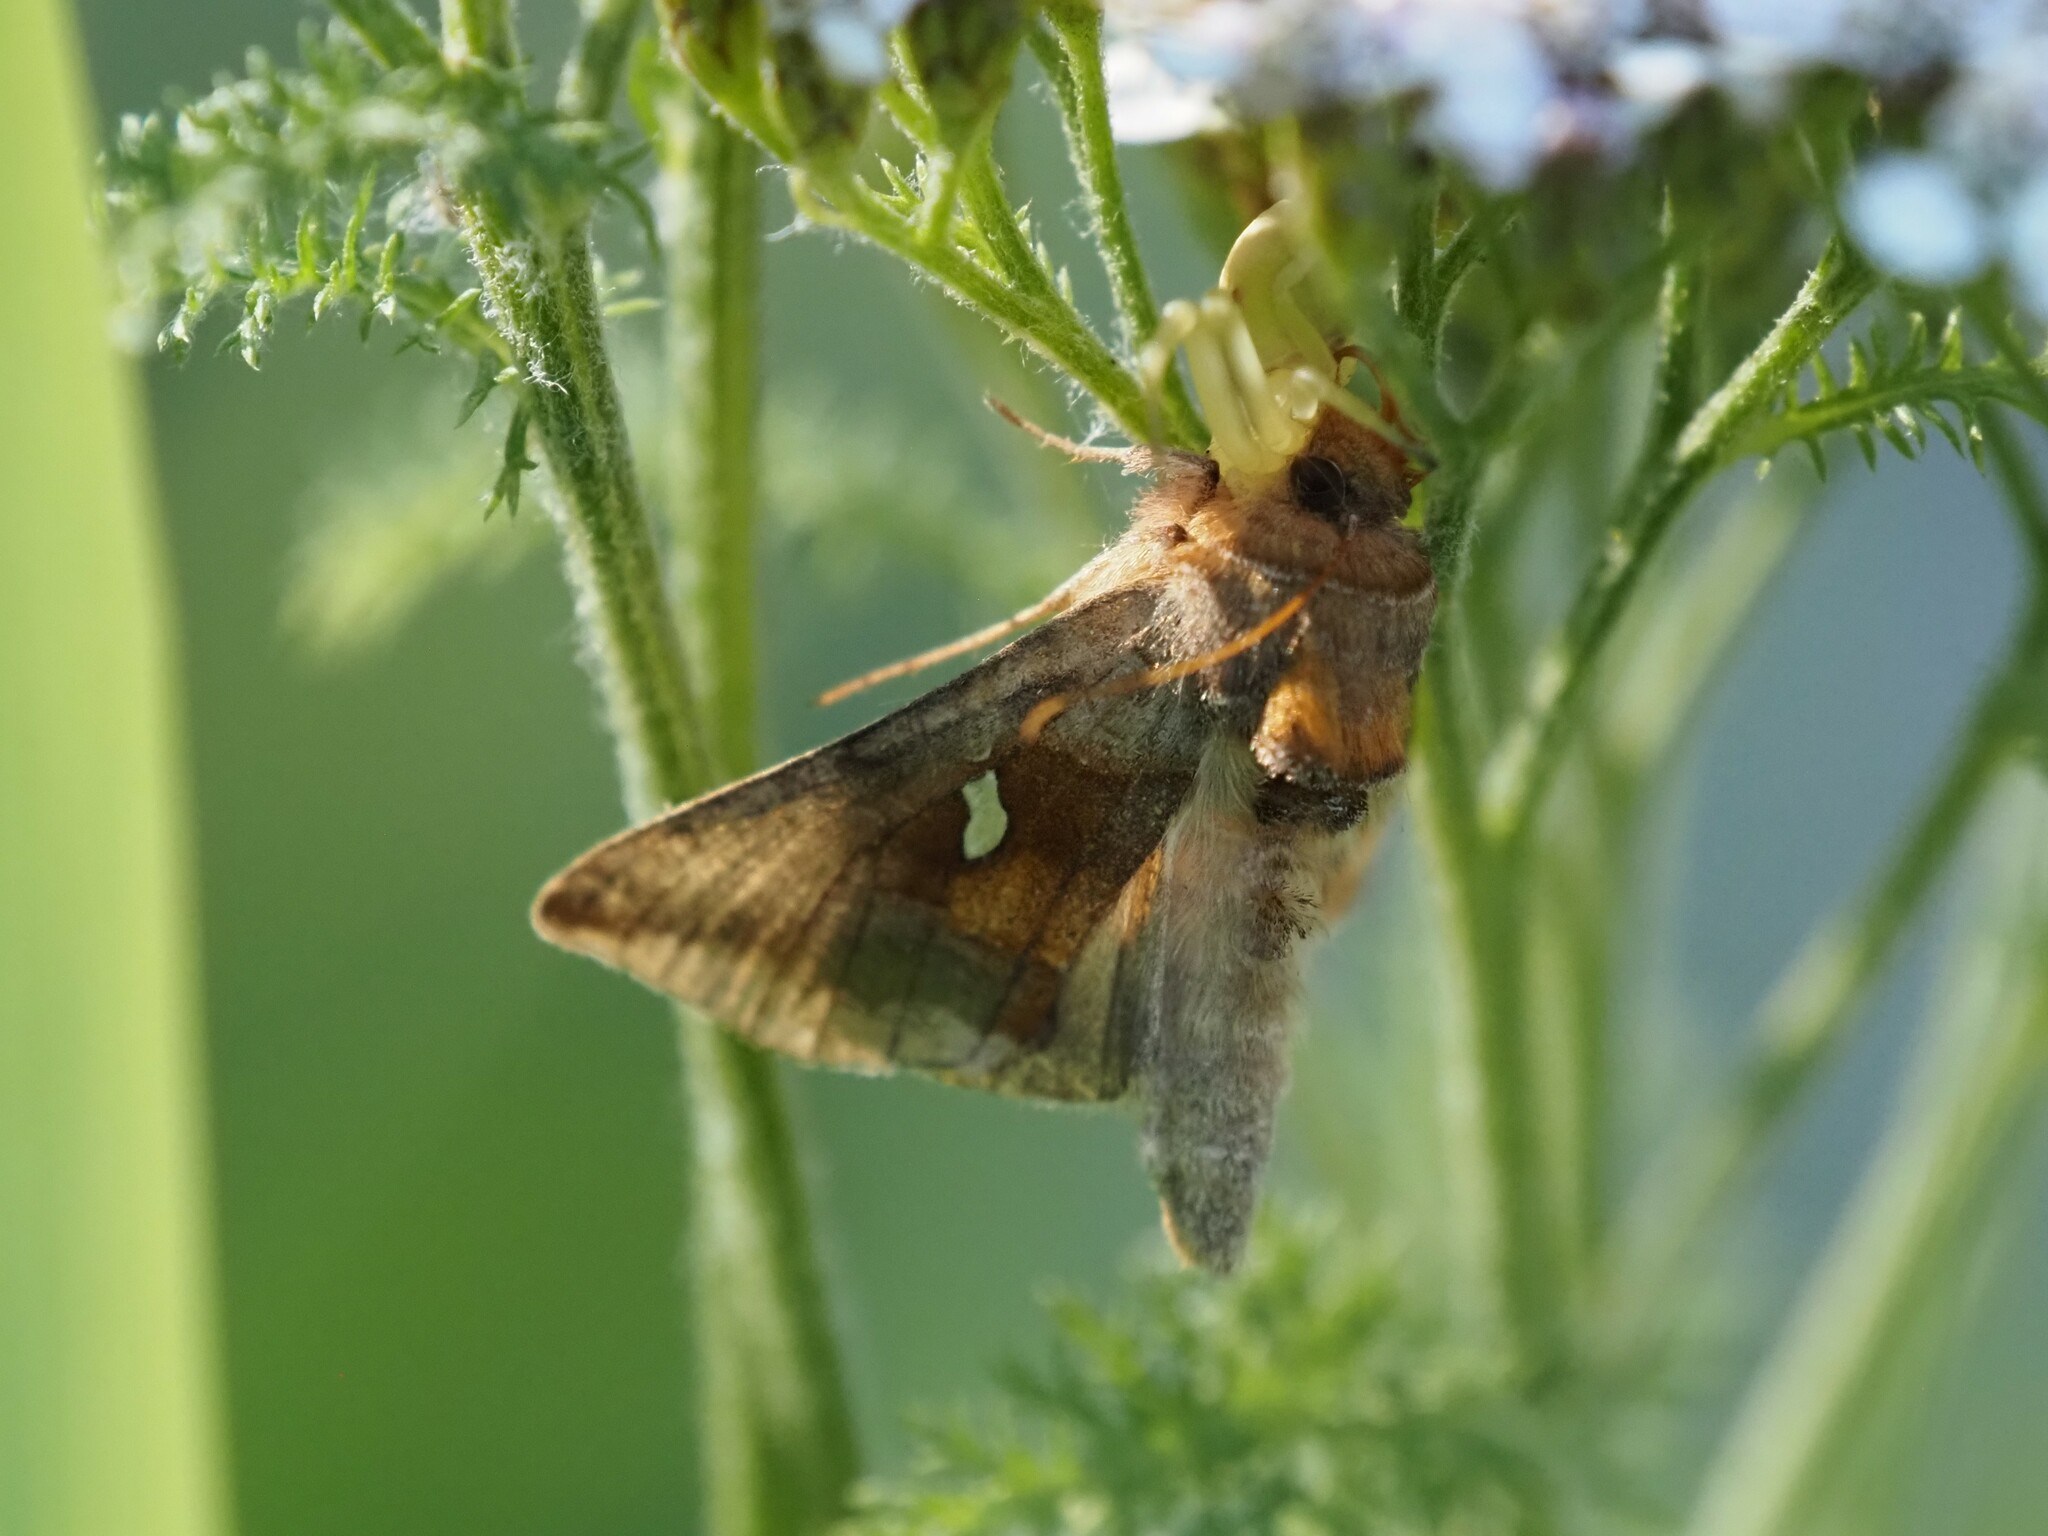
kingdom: Animalia
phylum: Arthropoda
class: Insecta
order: Lepidoptera
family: Noctuidae
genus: Autographa
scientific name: Autographa metallica
